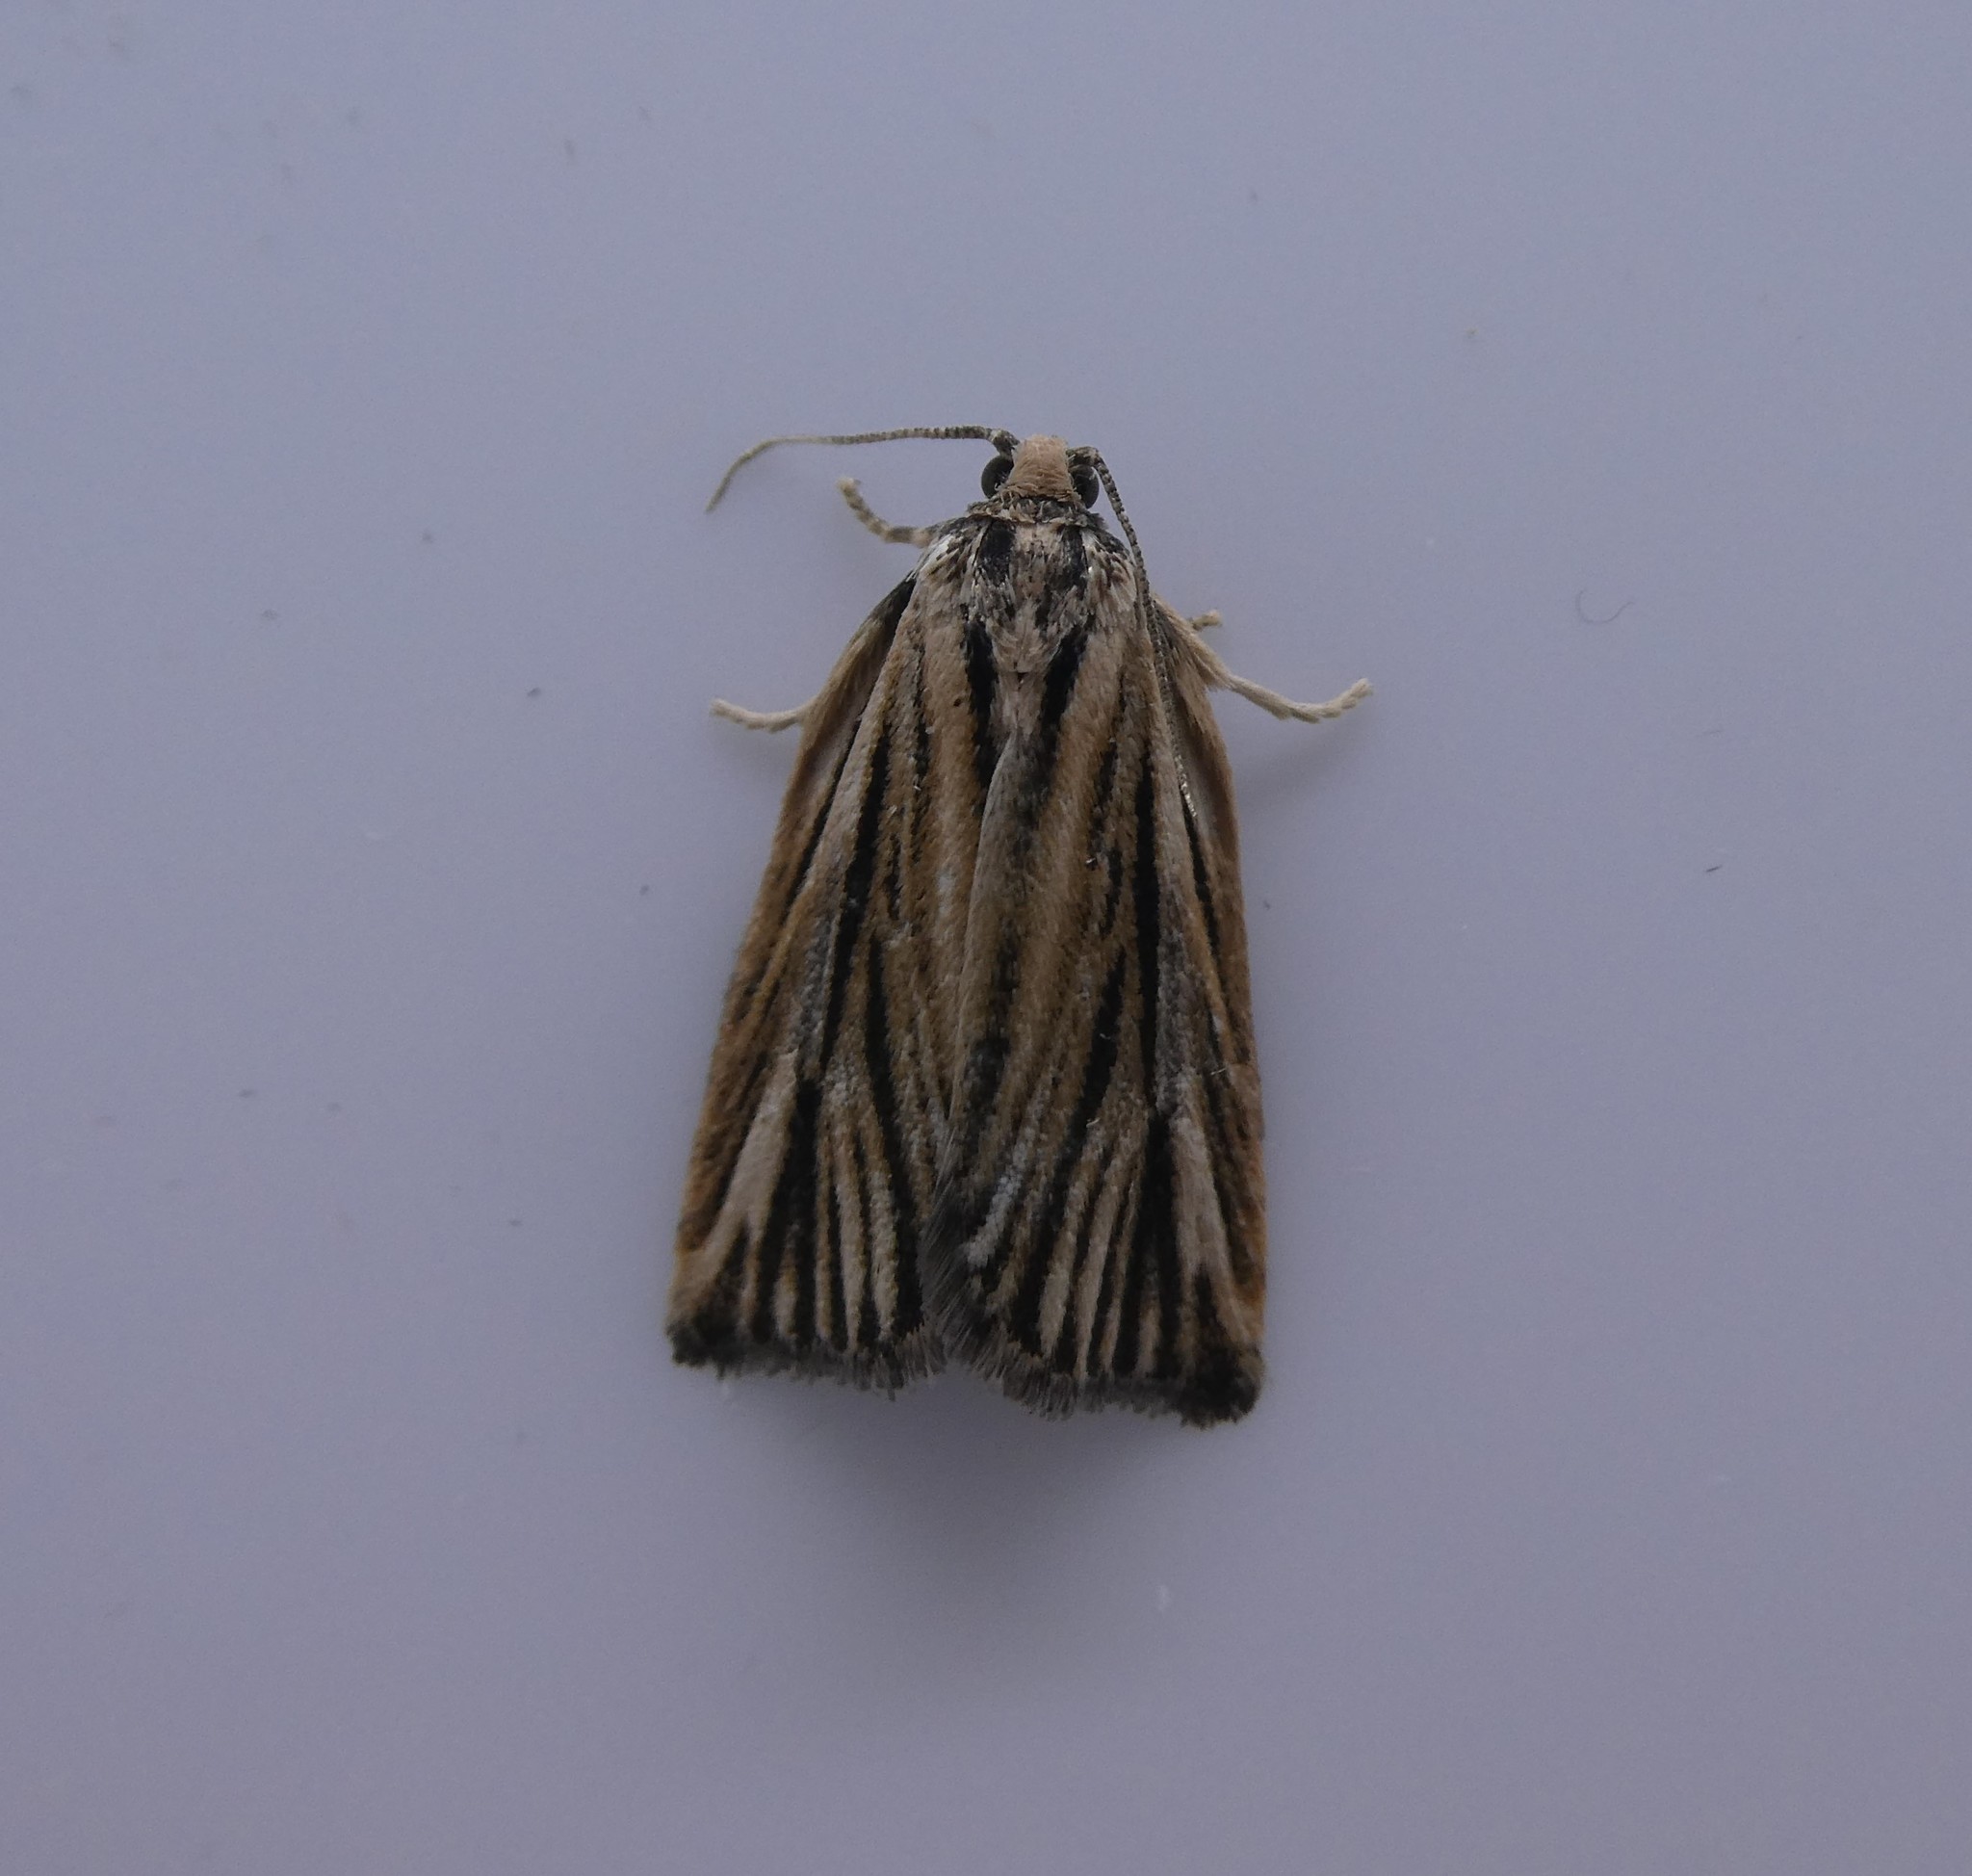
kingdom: Animalia
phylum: Arthropoda
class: Insecta
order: Lepidoptera
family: Tortricidae
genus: Archips
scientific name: Archips strianus
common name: Striated tortrix moth
